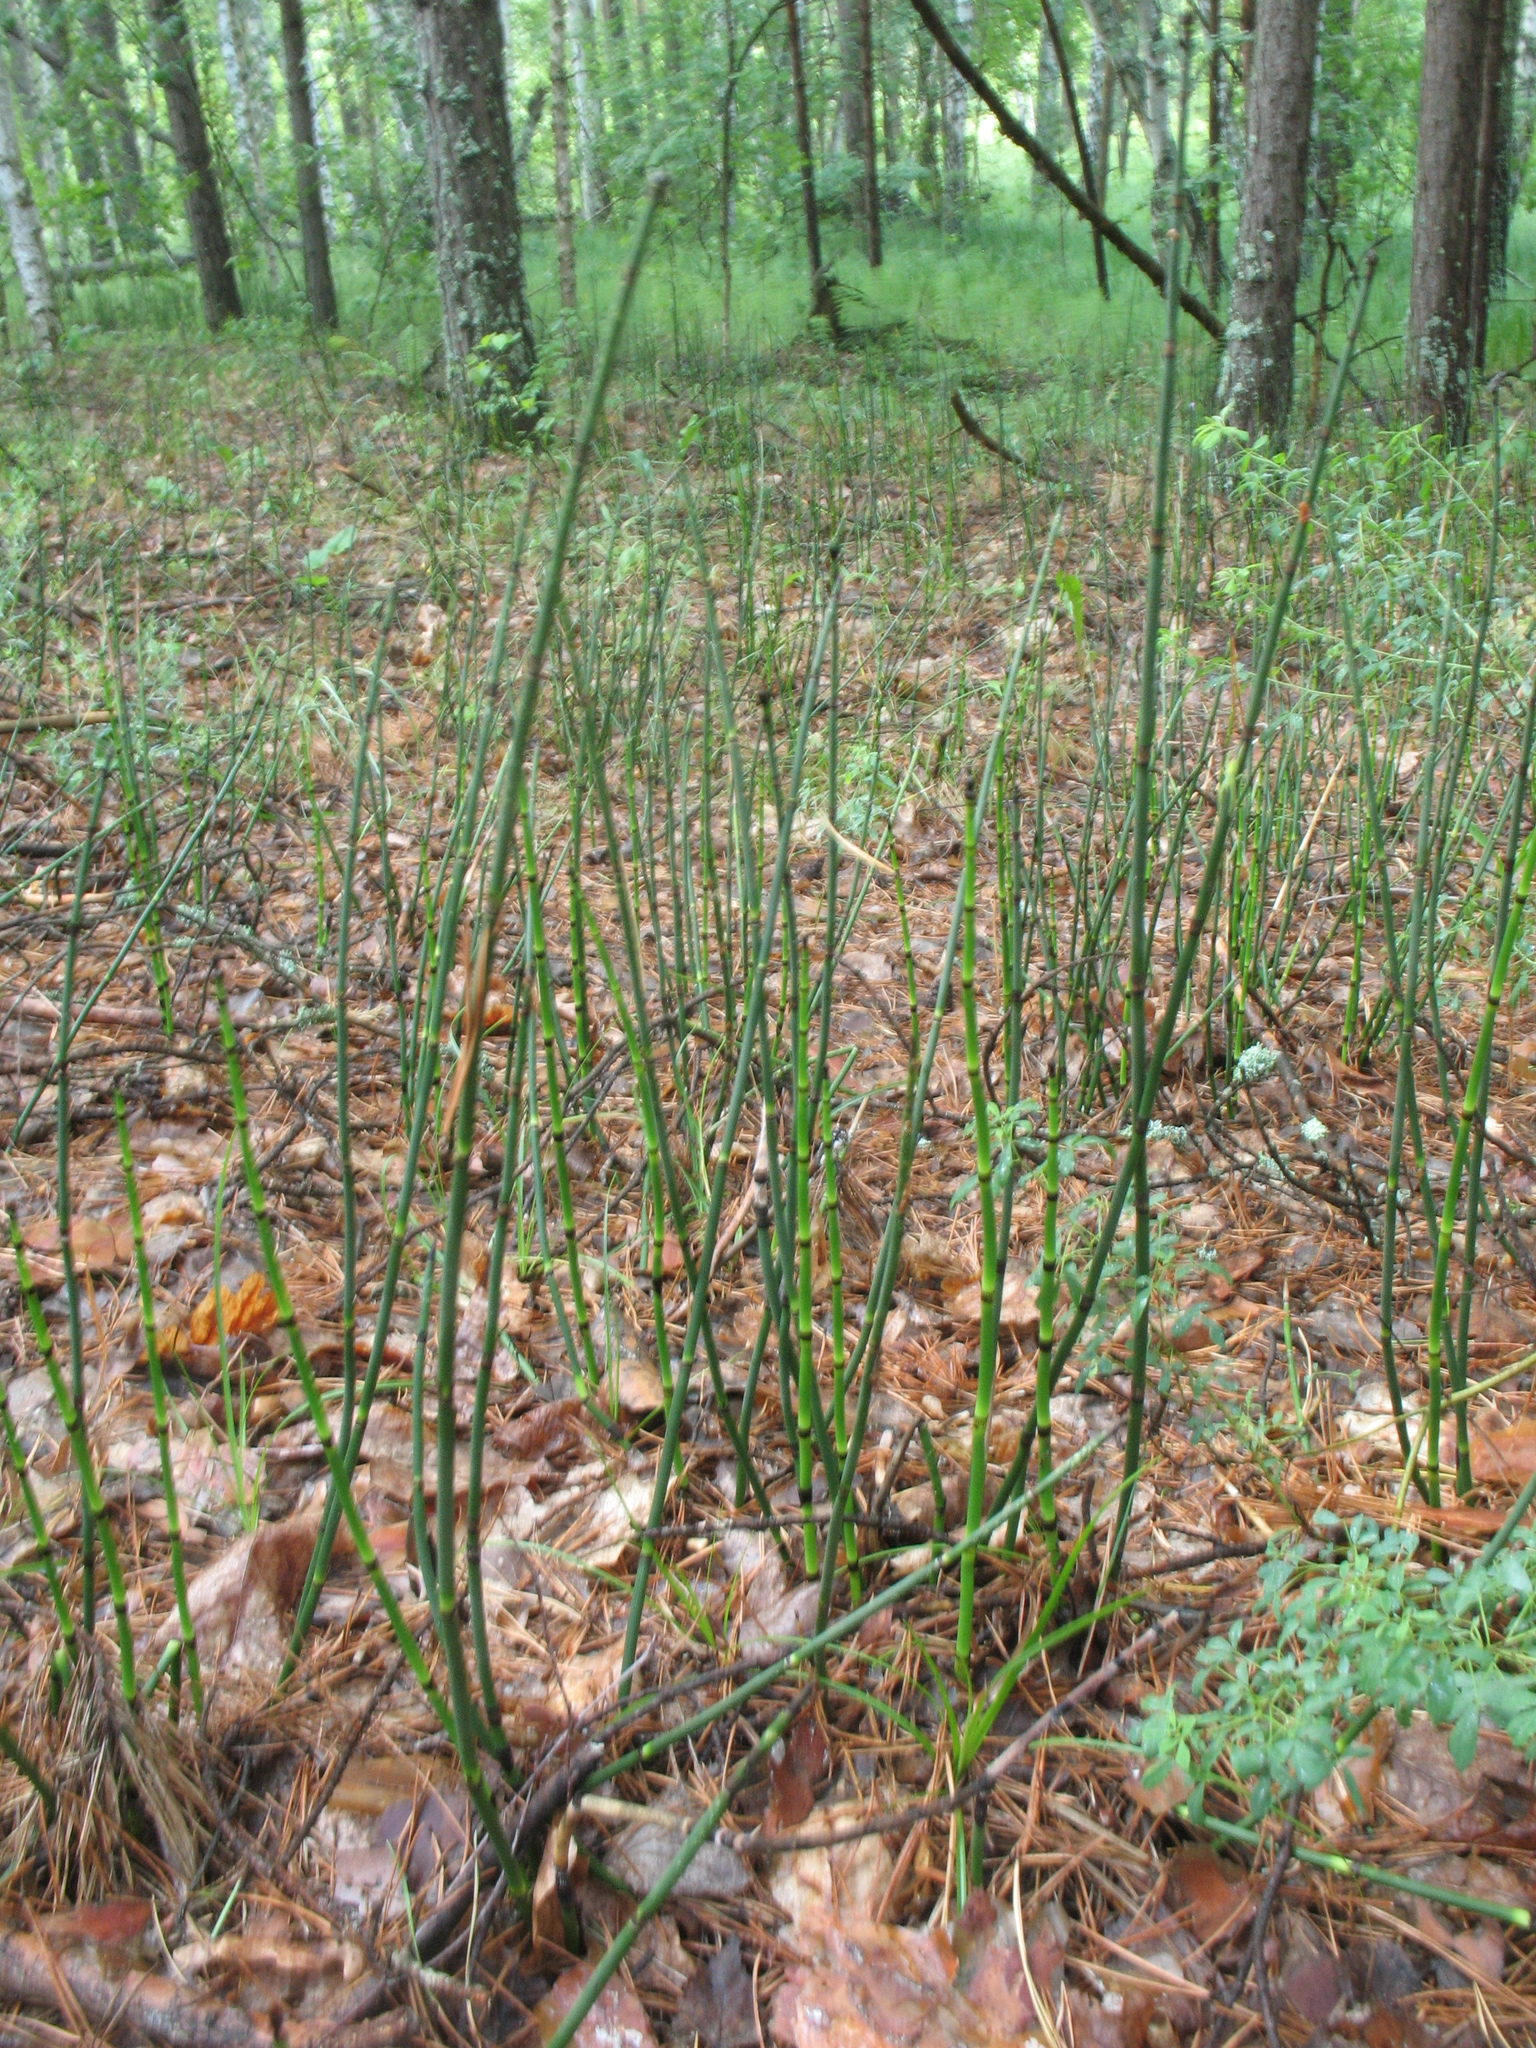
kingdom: Plantae
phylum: Tracheophyta
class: Polypodiopsida
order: Equisetales
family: Equisetaceae
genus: Equisetum
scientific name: Equisetum hyemale
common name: Rough horsetail
